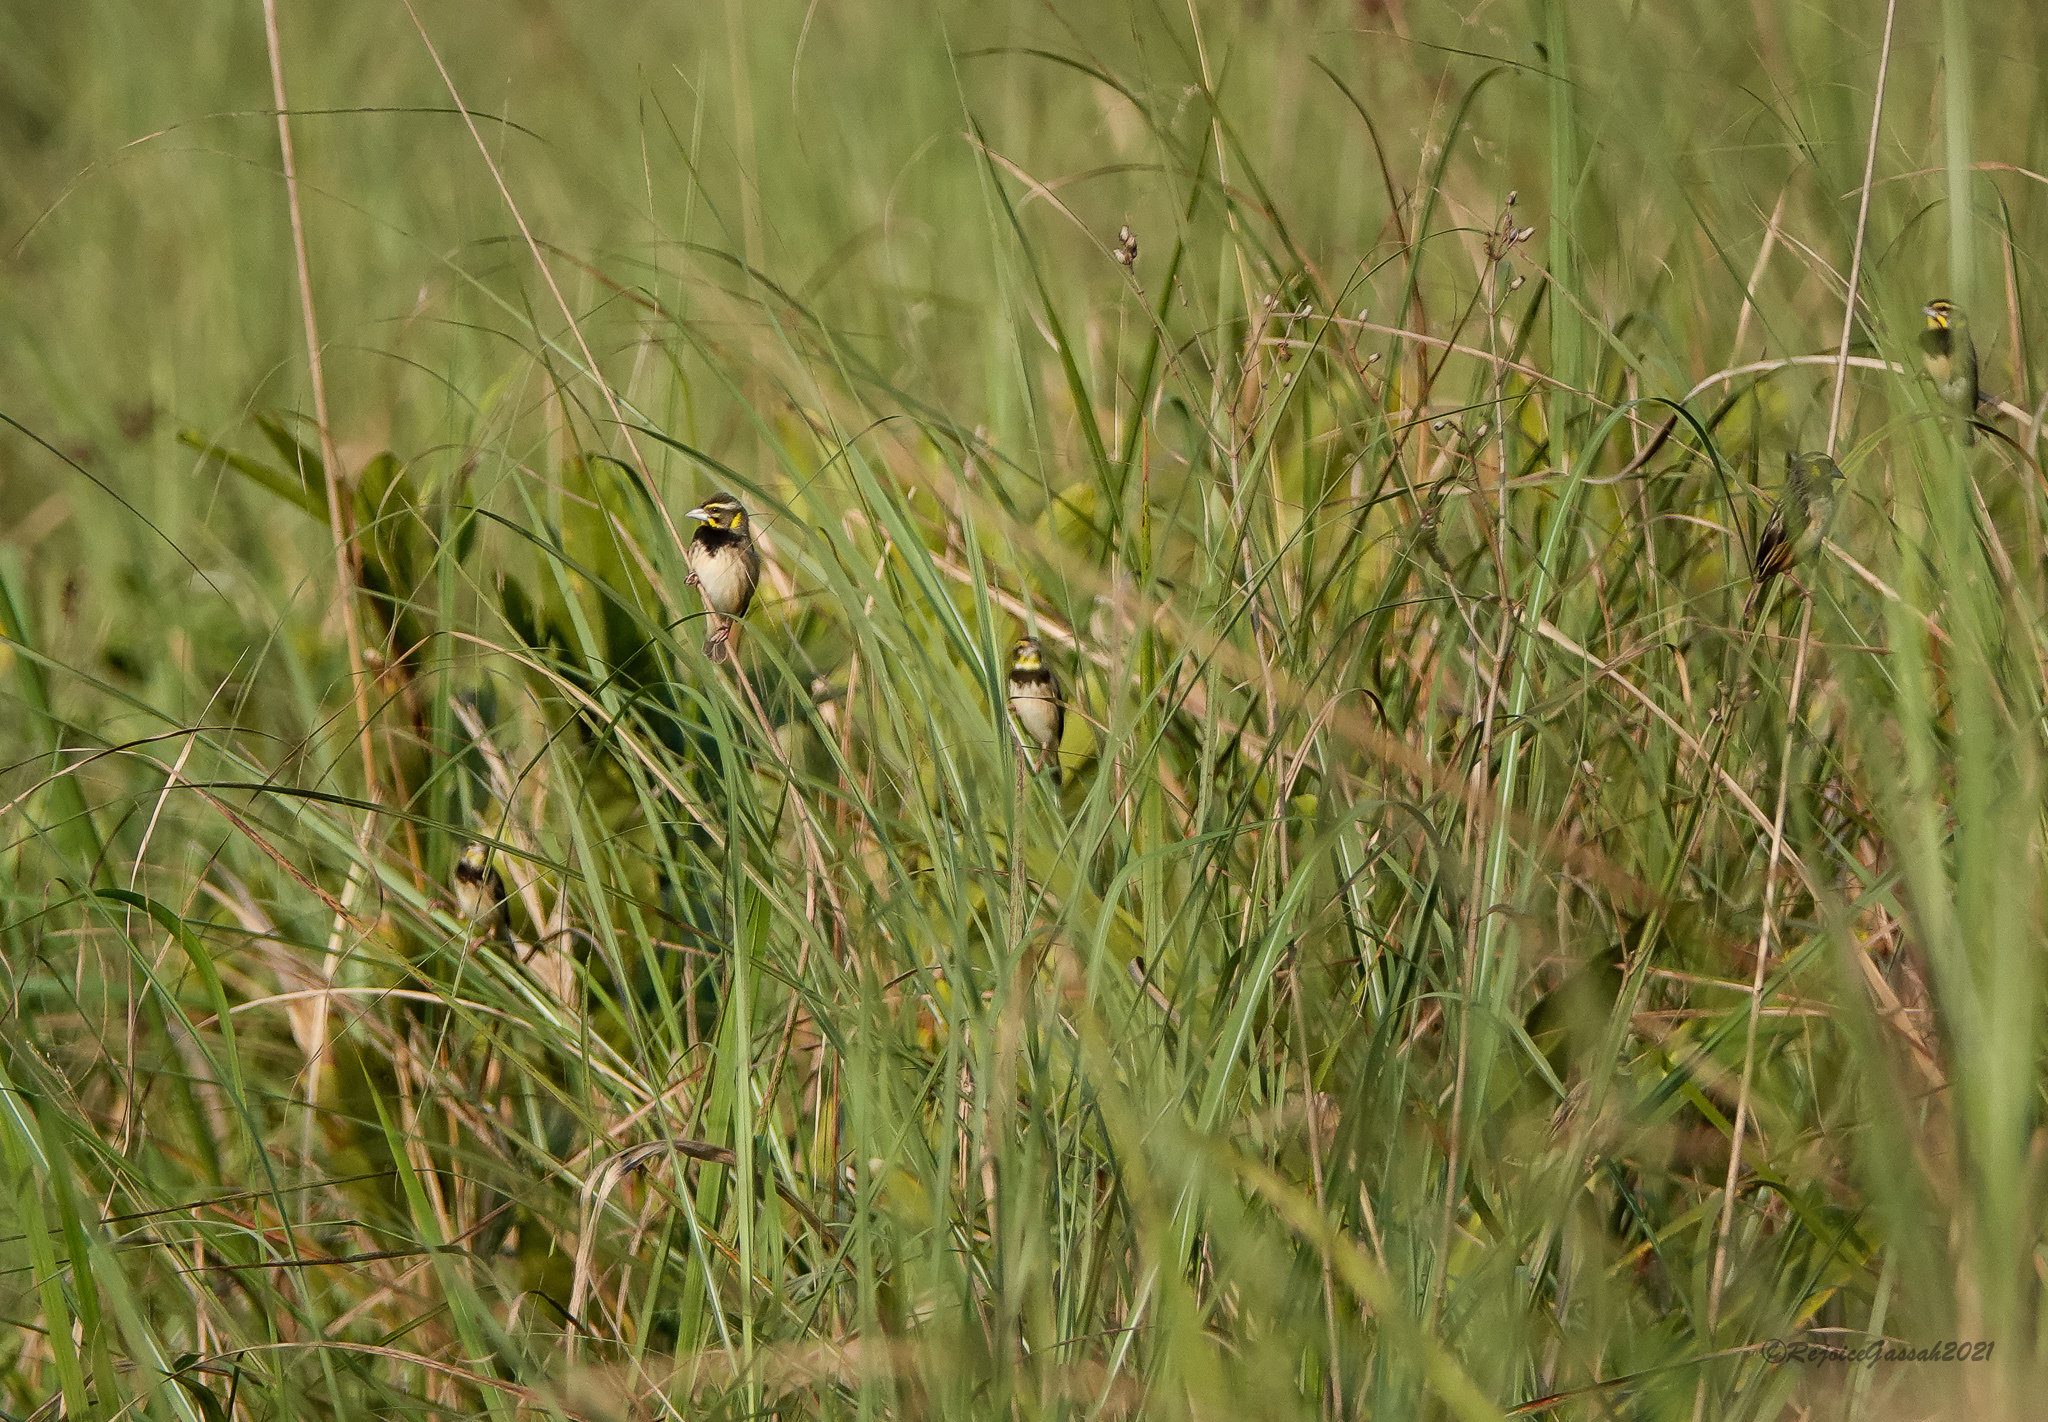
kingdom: Animalia
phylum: Chordata
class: Aves
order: Passeriformes
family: Ploceidae
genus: Ploceus
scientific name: Ploceus benghalensis
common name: Black-breasted weaver
